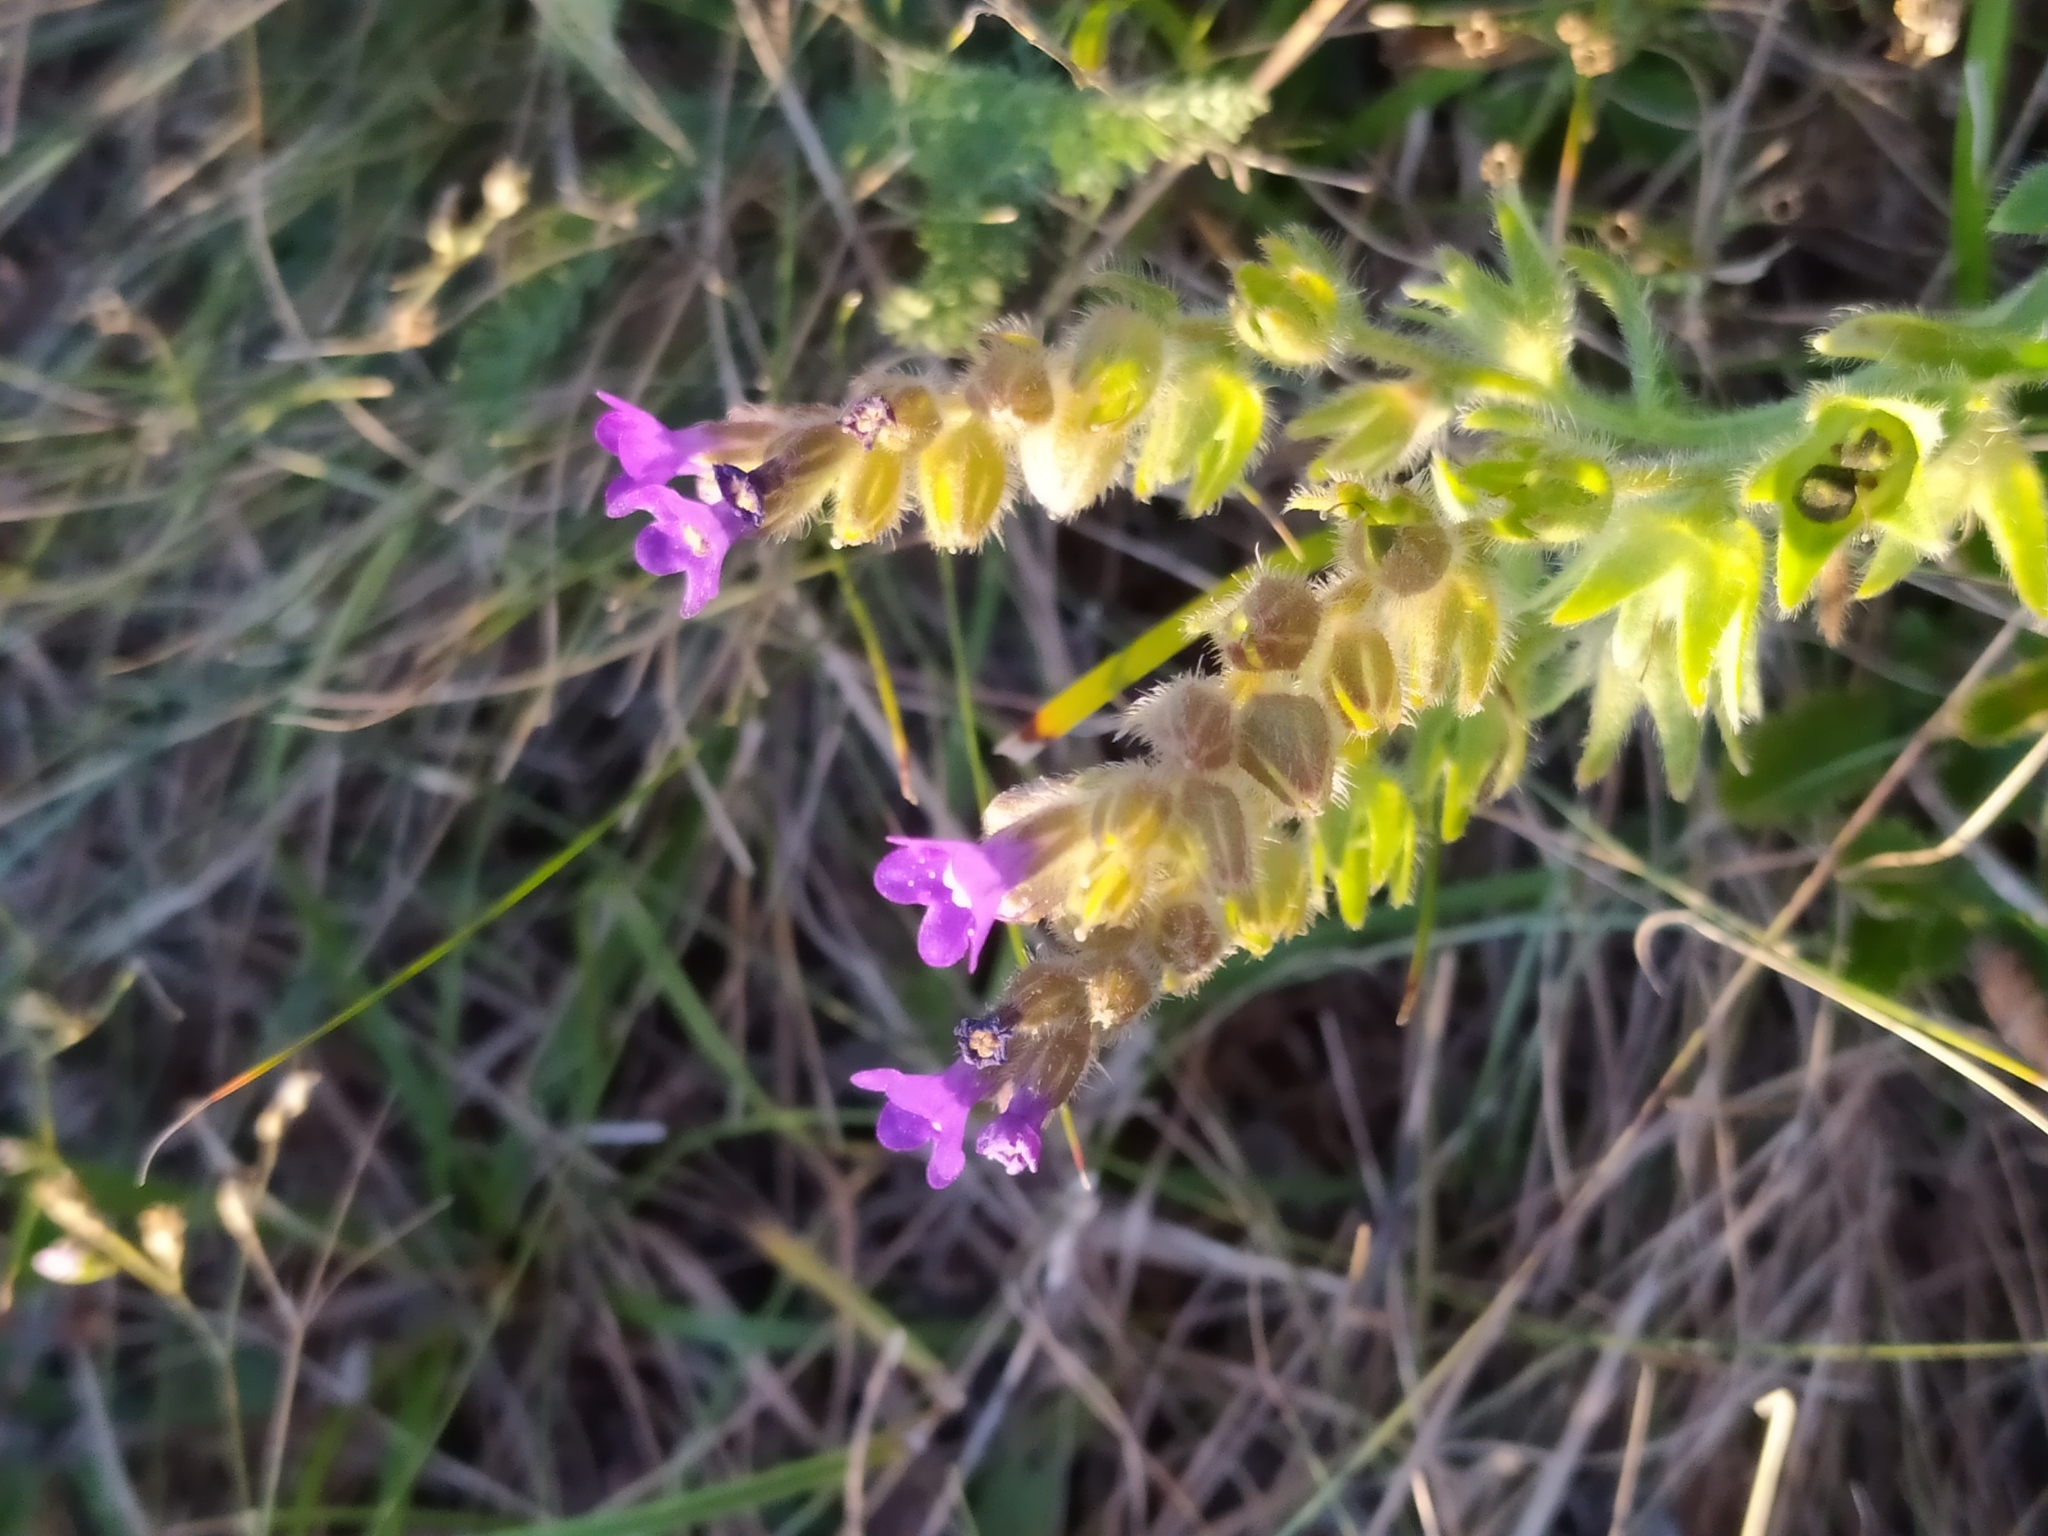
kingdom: Plantae
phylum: Tracheophyta
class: Magnoliopsida
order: Boraginales
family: Boraginaceae
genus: Anchusa
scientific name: Anchusa officinalis
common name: Alkanet
